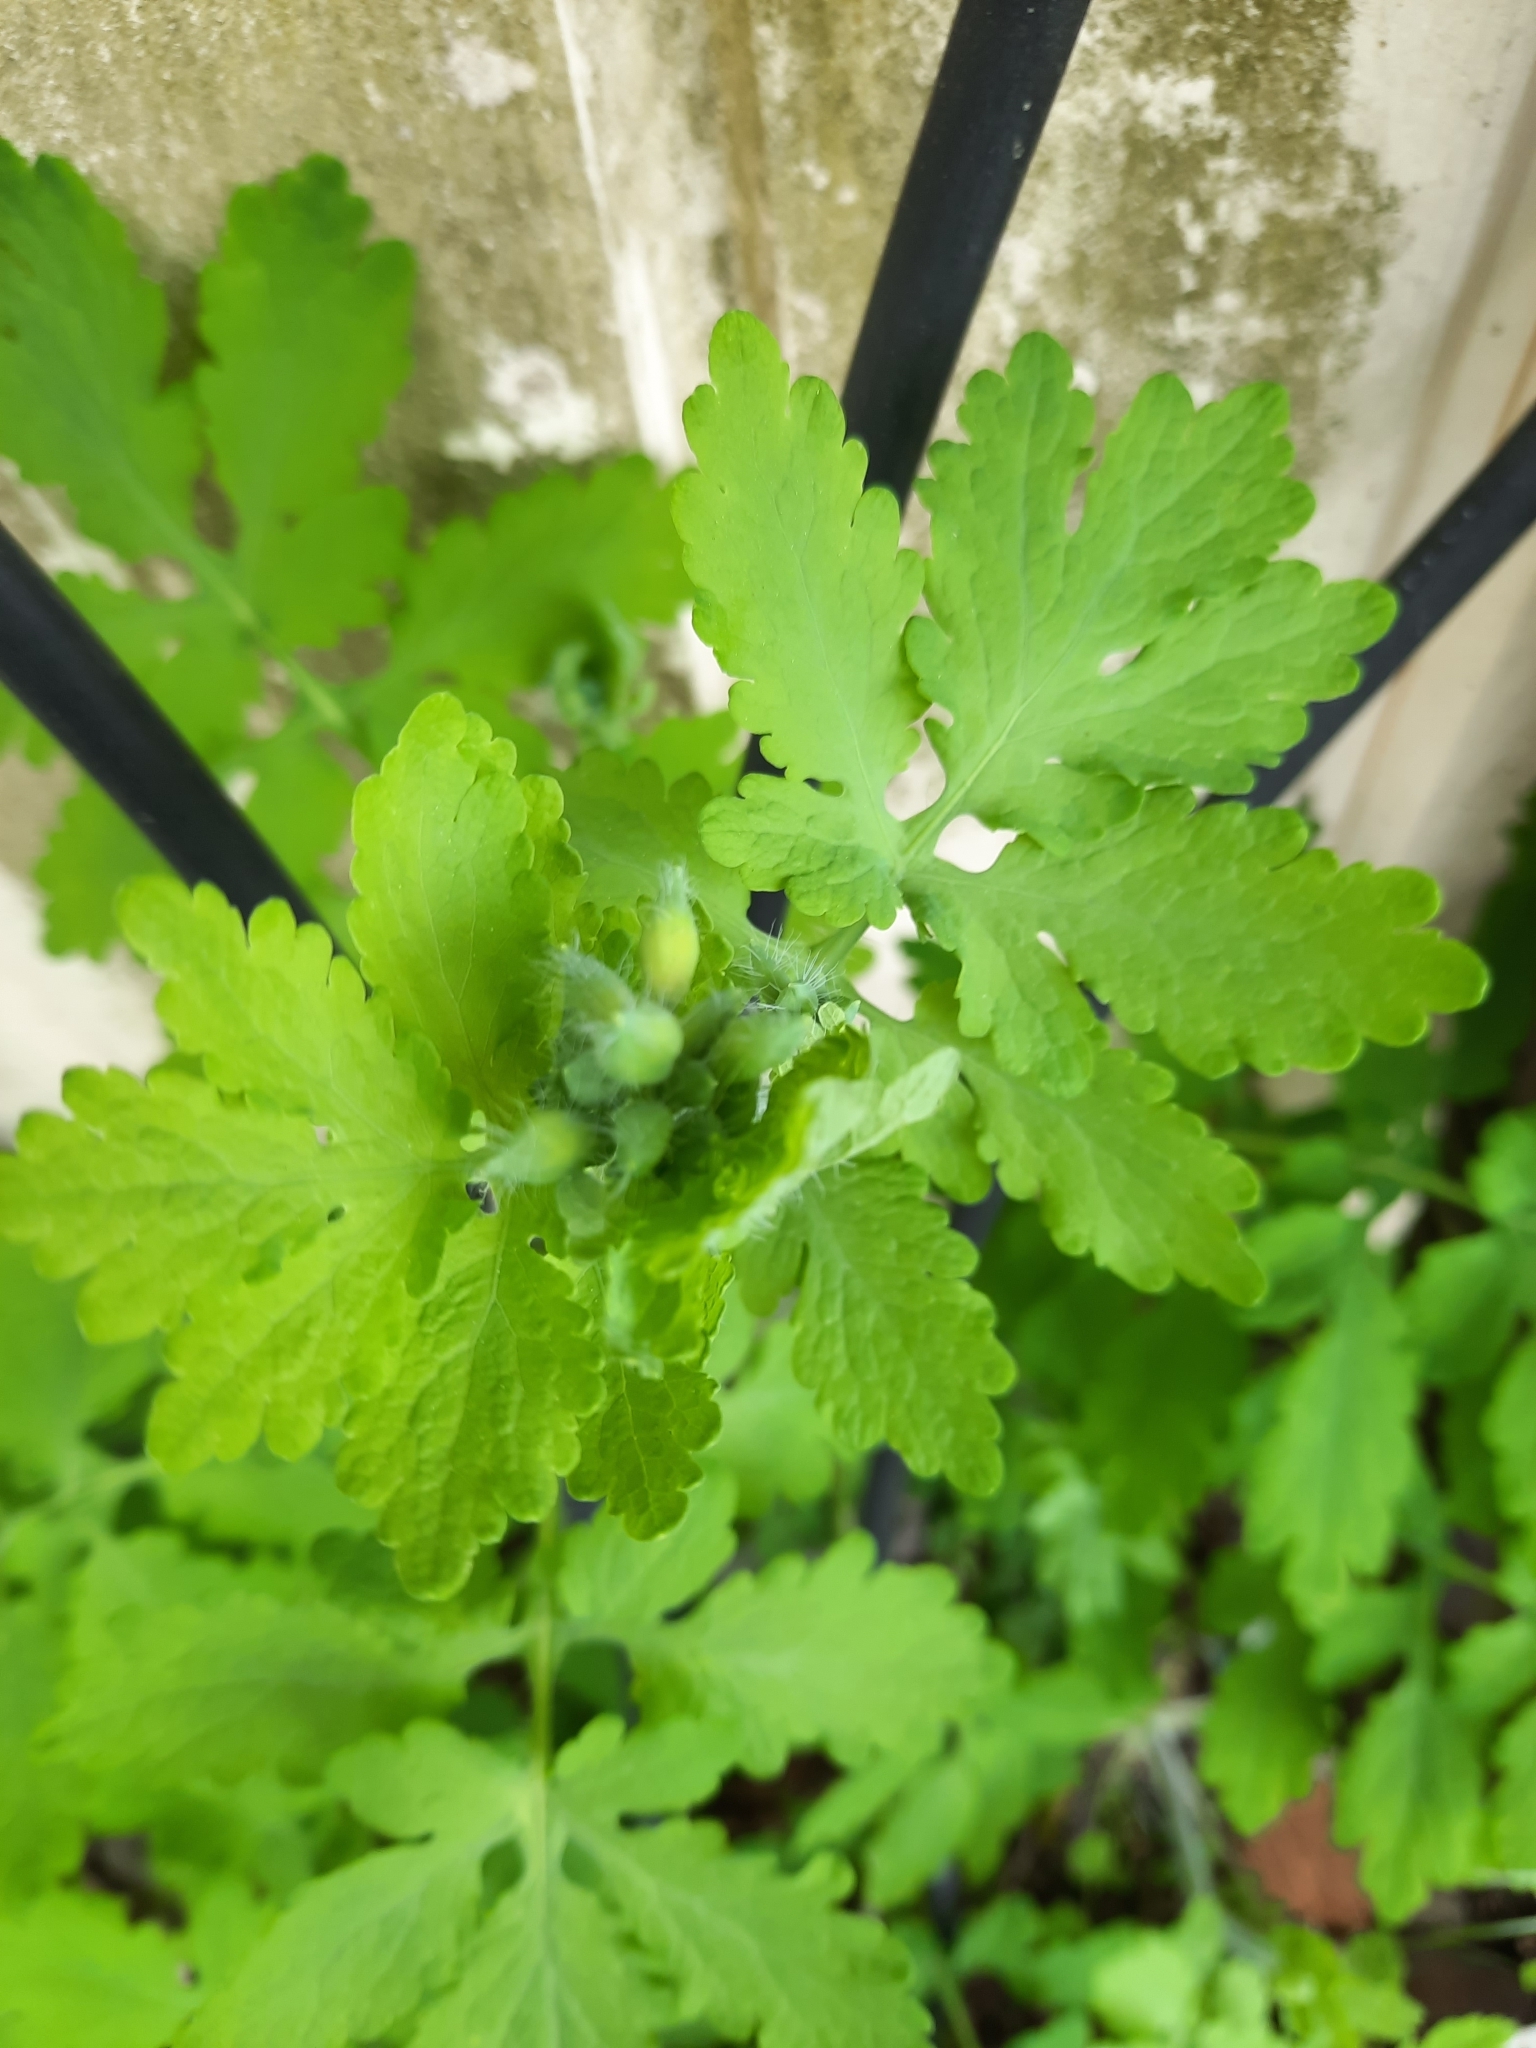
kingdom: Plantae
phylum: Tracheophyta
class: Magnoliopsida
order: Ranunculales
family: Papaveraceae
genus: Chelidonium
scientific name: Chelidonium majus
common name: Greater celandine
